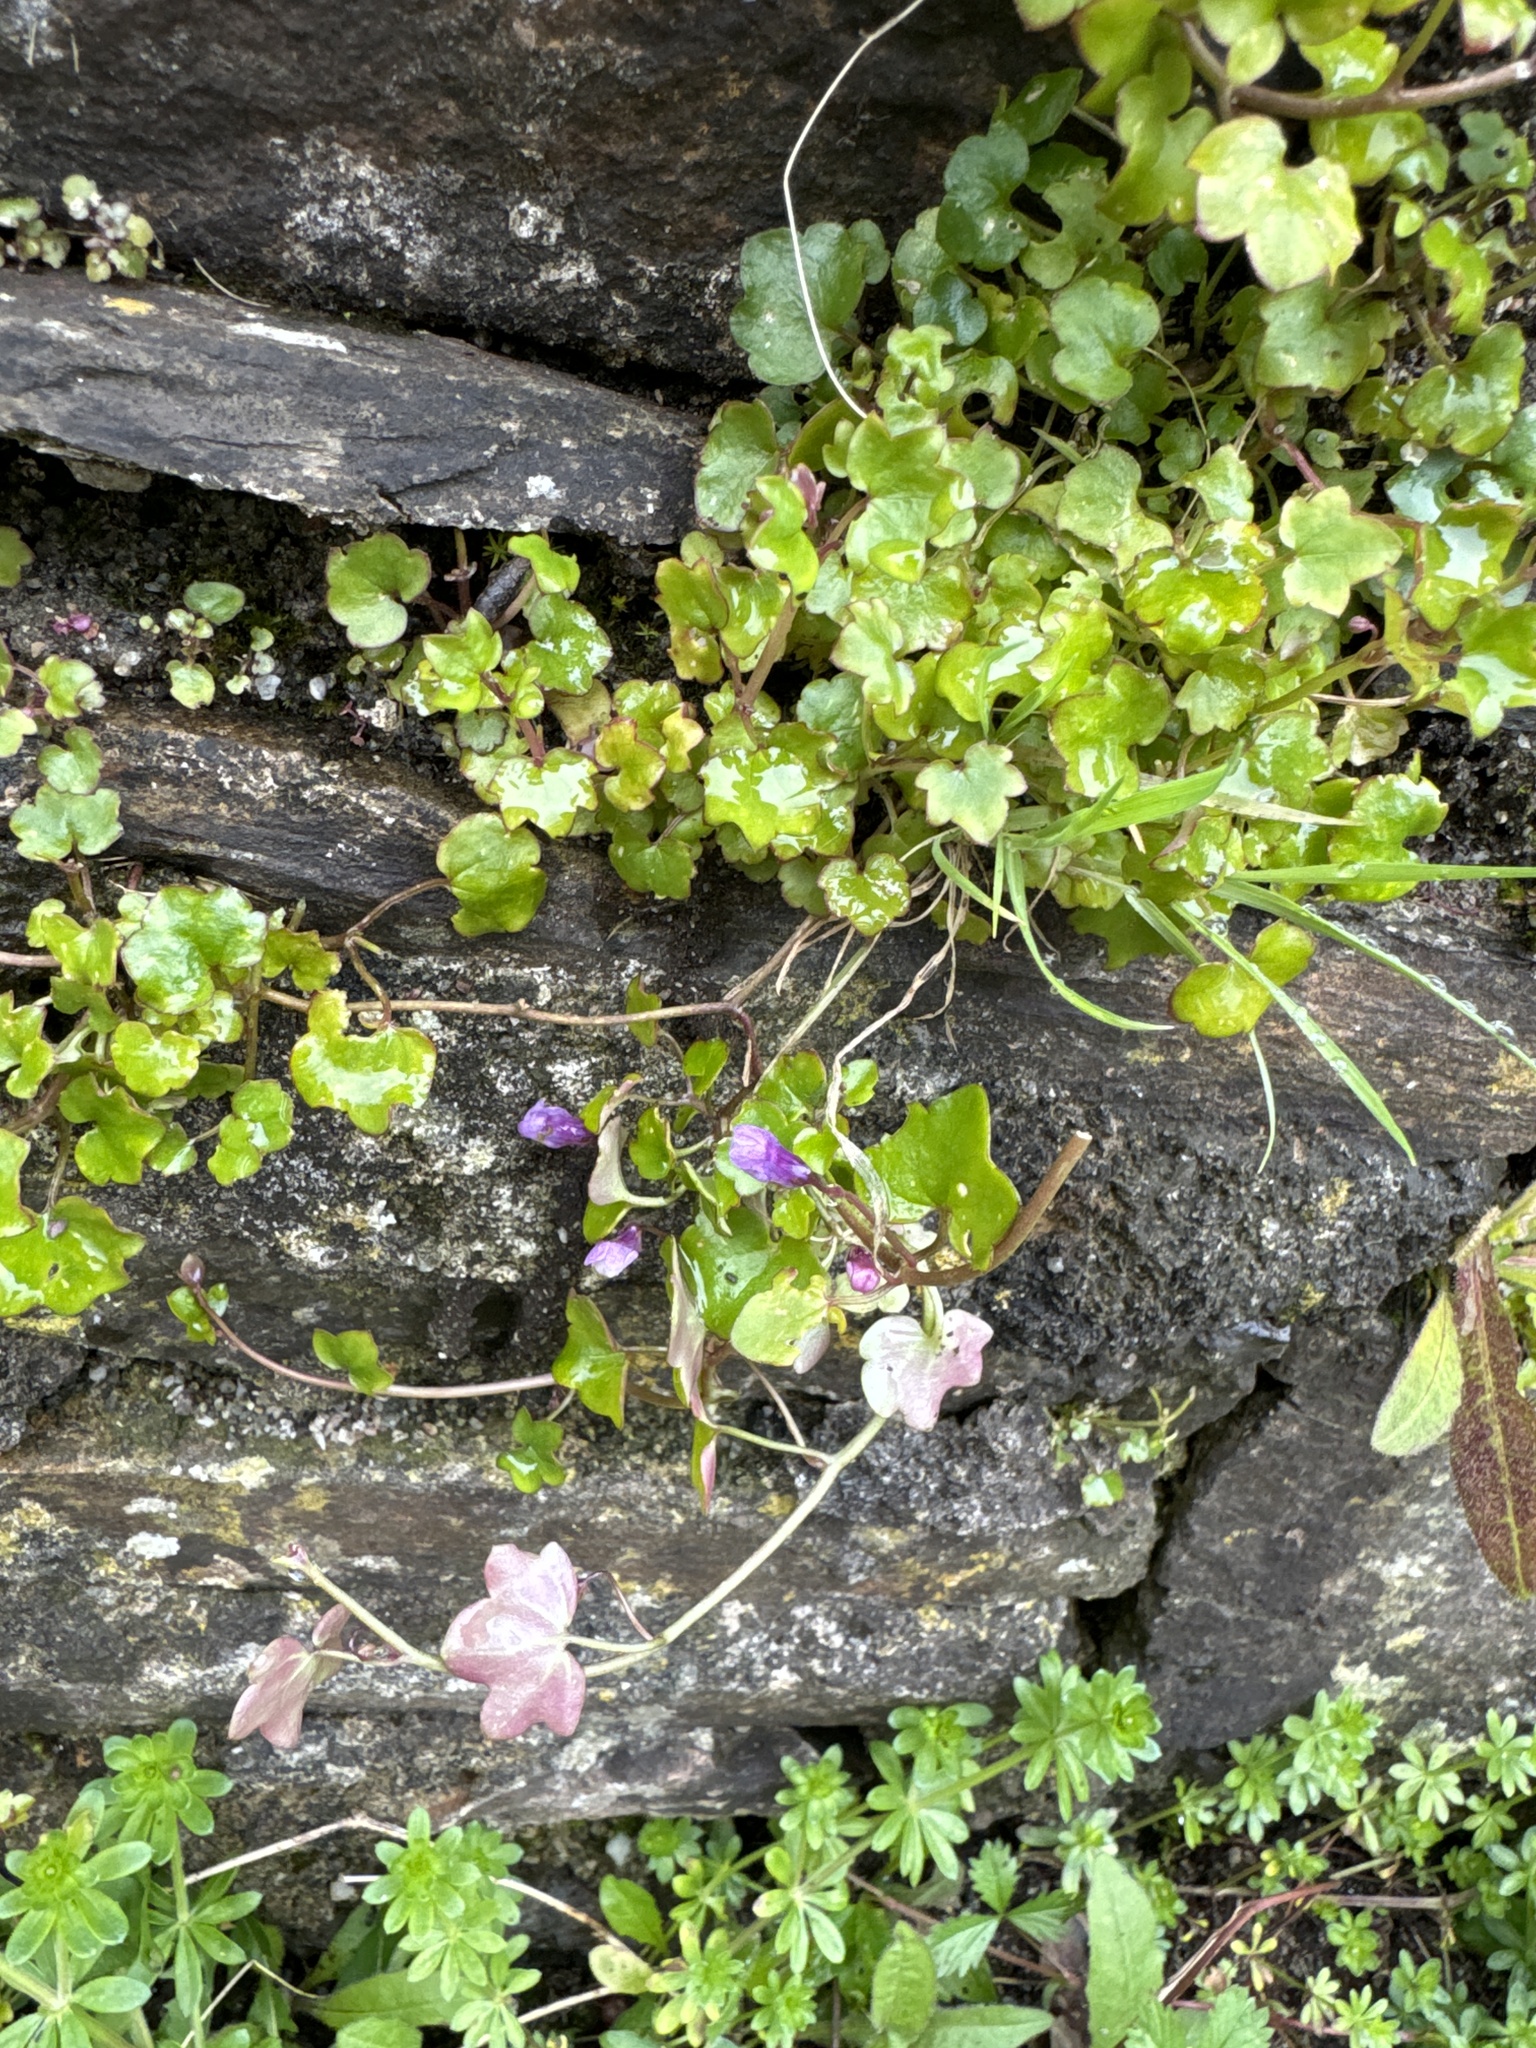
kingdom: Plantae
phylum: Tracheophyta
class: Magnoliopsida
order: Lamiales
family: Plantaginaceae
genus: Cymbalaria
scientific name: Cymbalaria muralis
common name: Ivy-leaved toadflax
